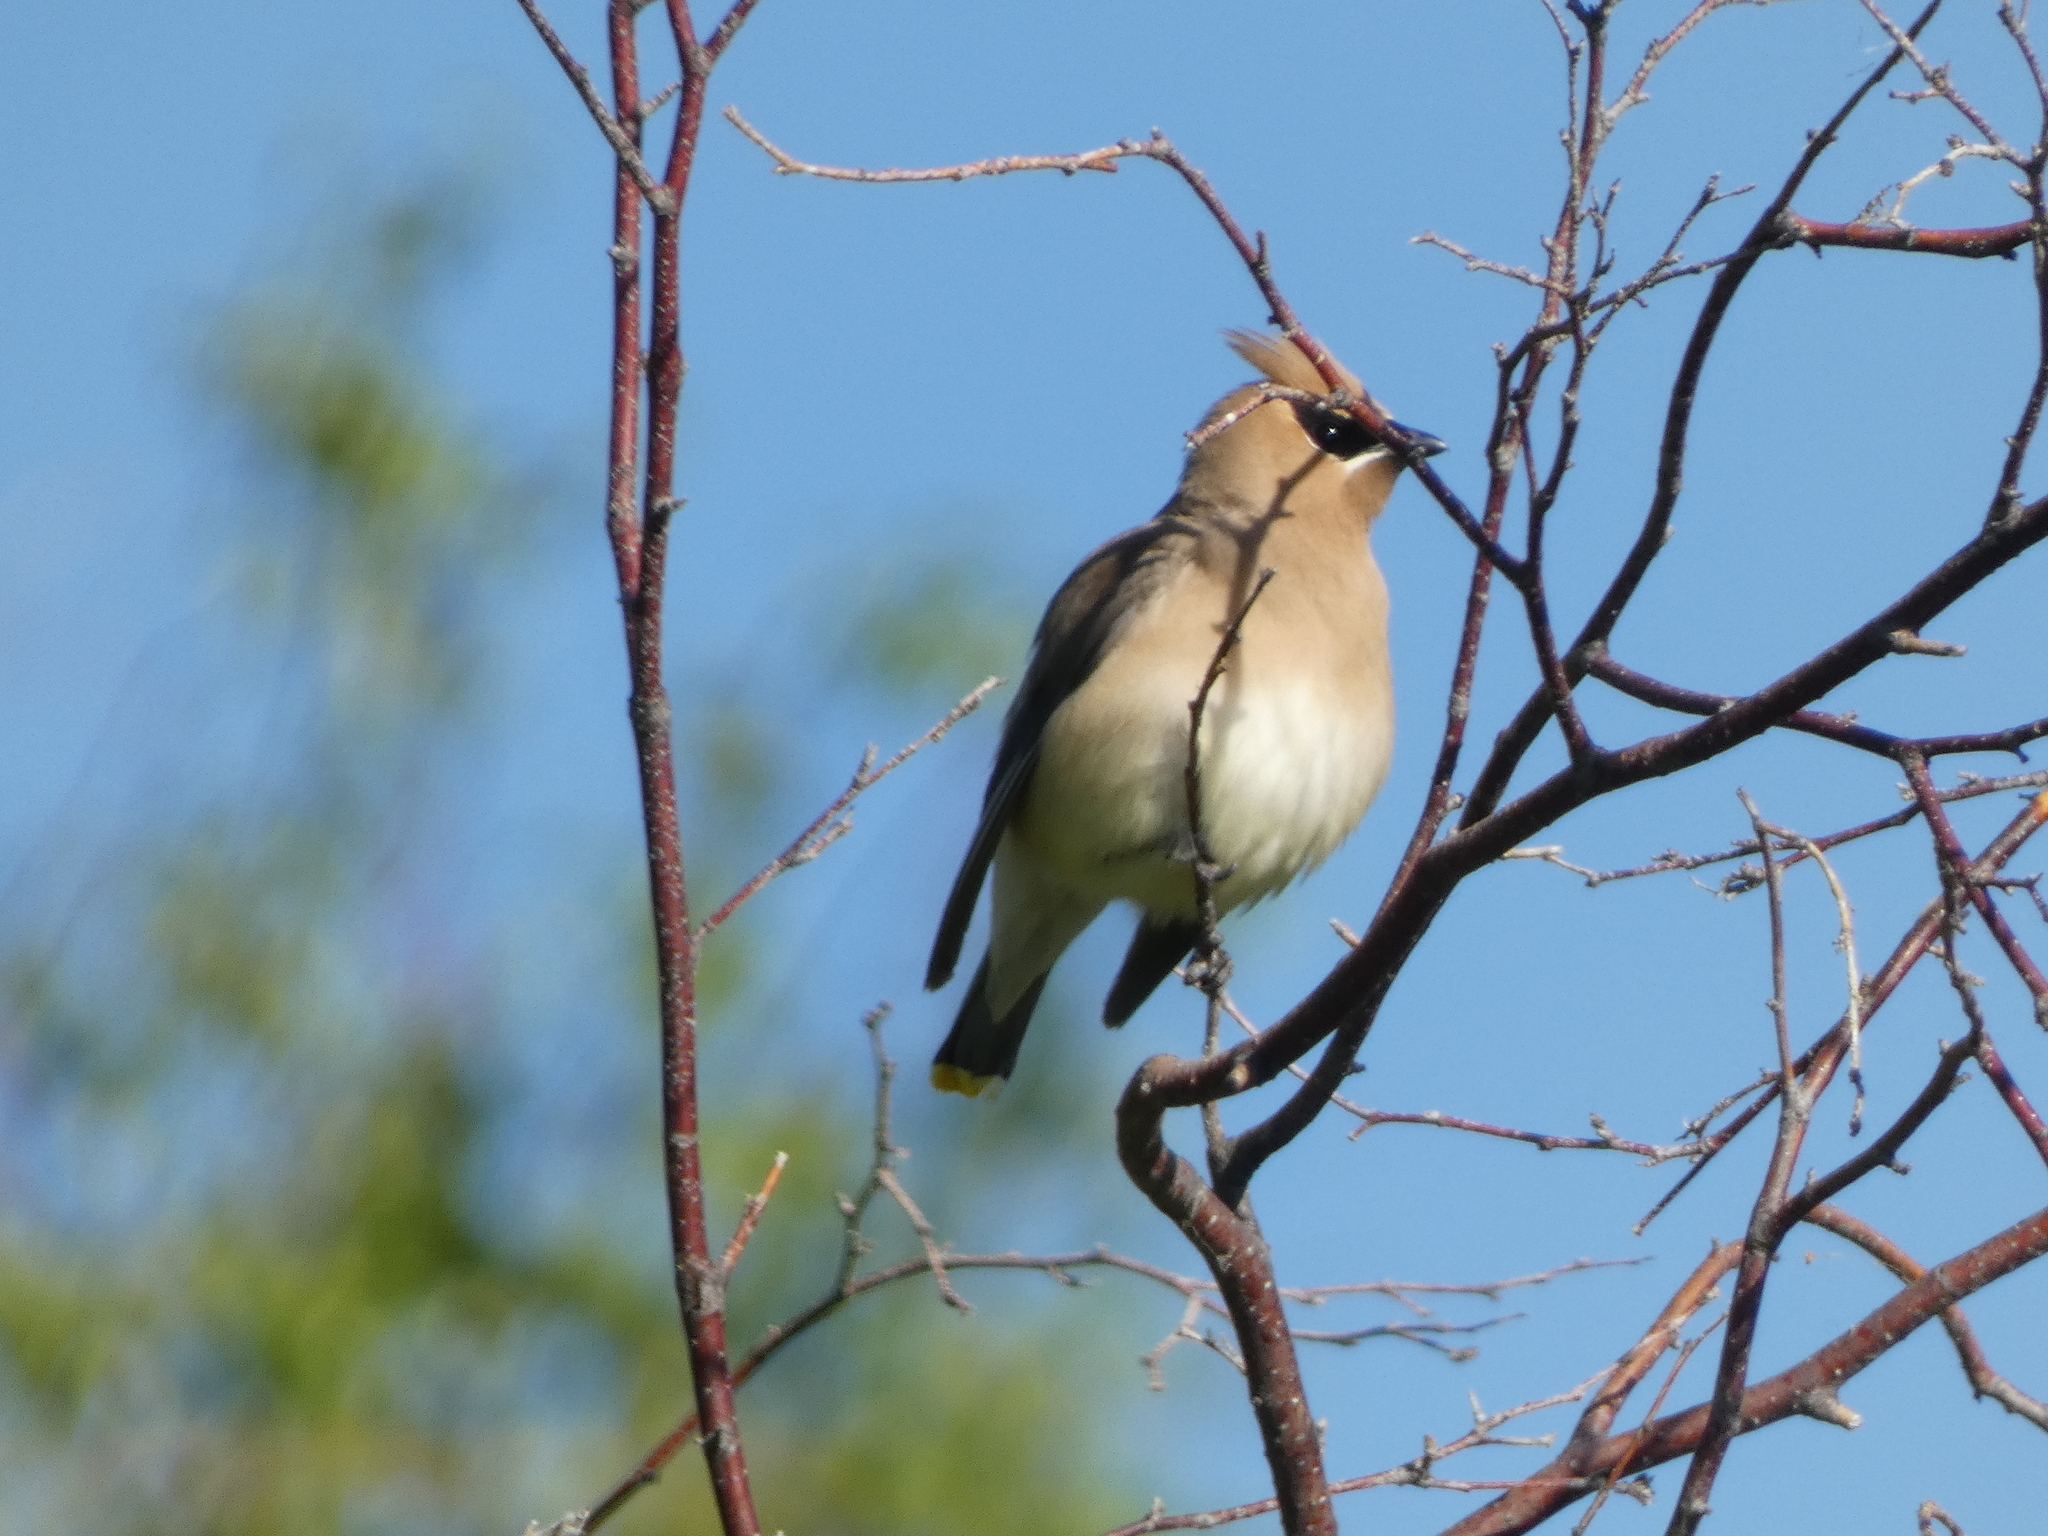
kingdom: Animalia
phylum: Chordata
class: Aves
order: Passeriformes
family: Bombycillidae
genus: Bombycilla
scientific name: Bombycilla cedrorum
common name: Cedar waxwing
